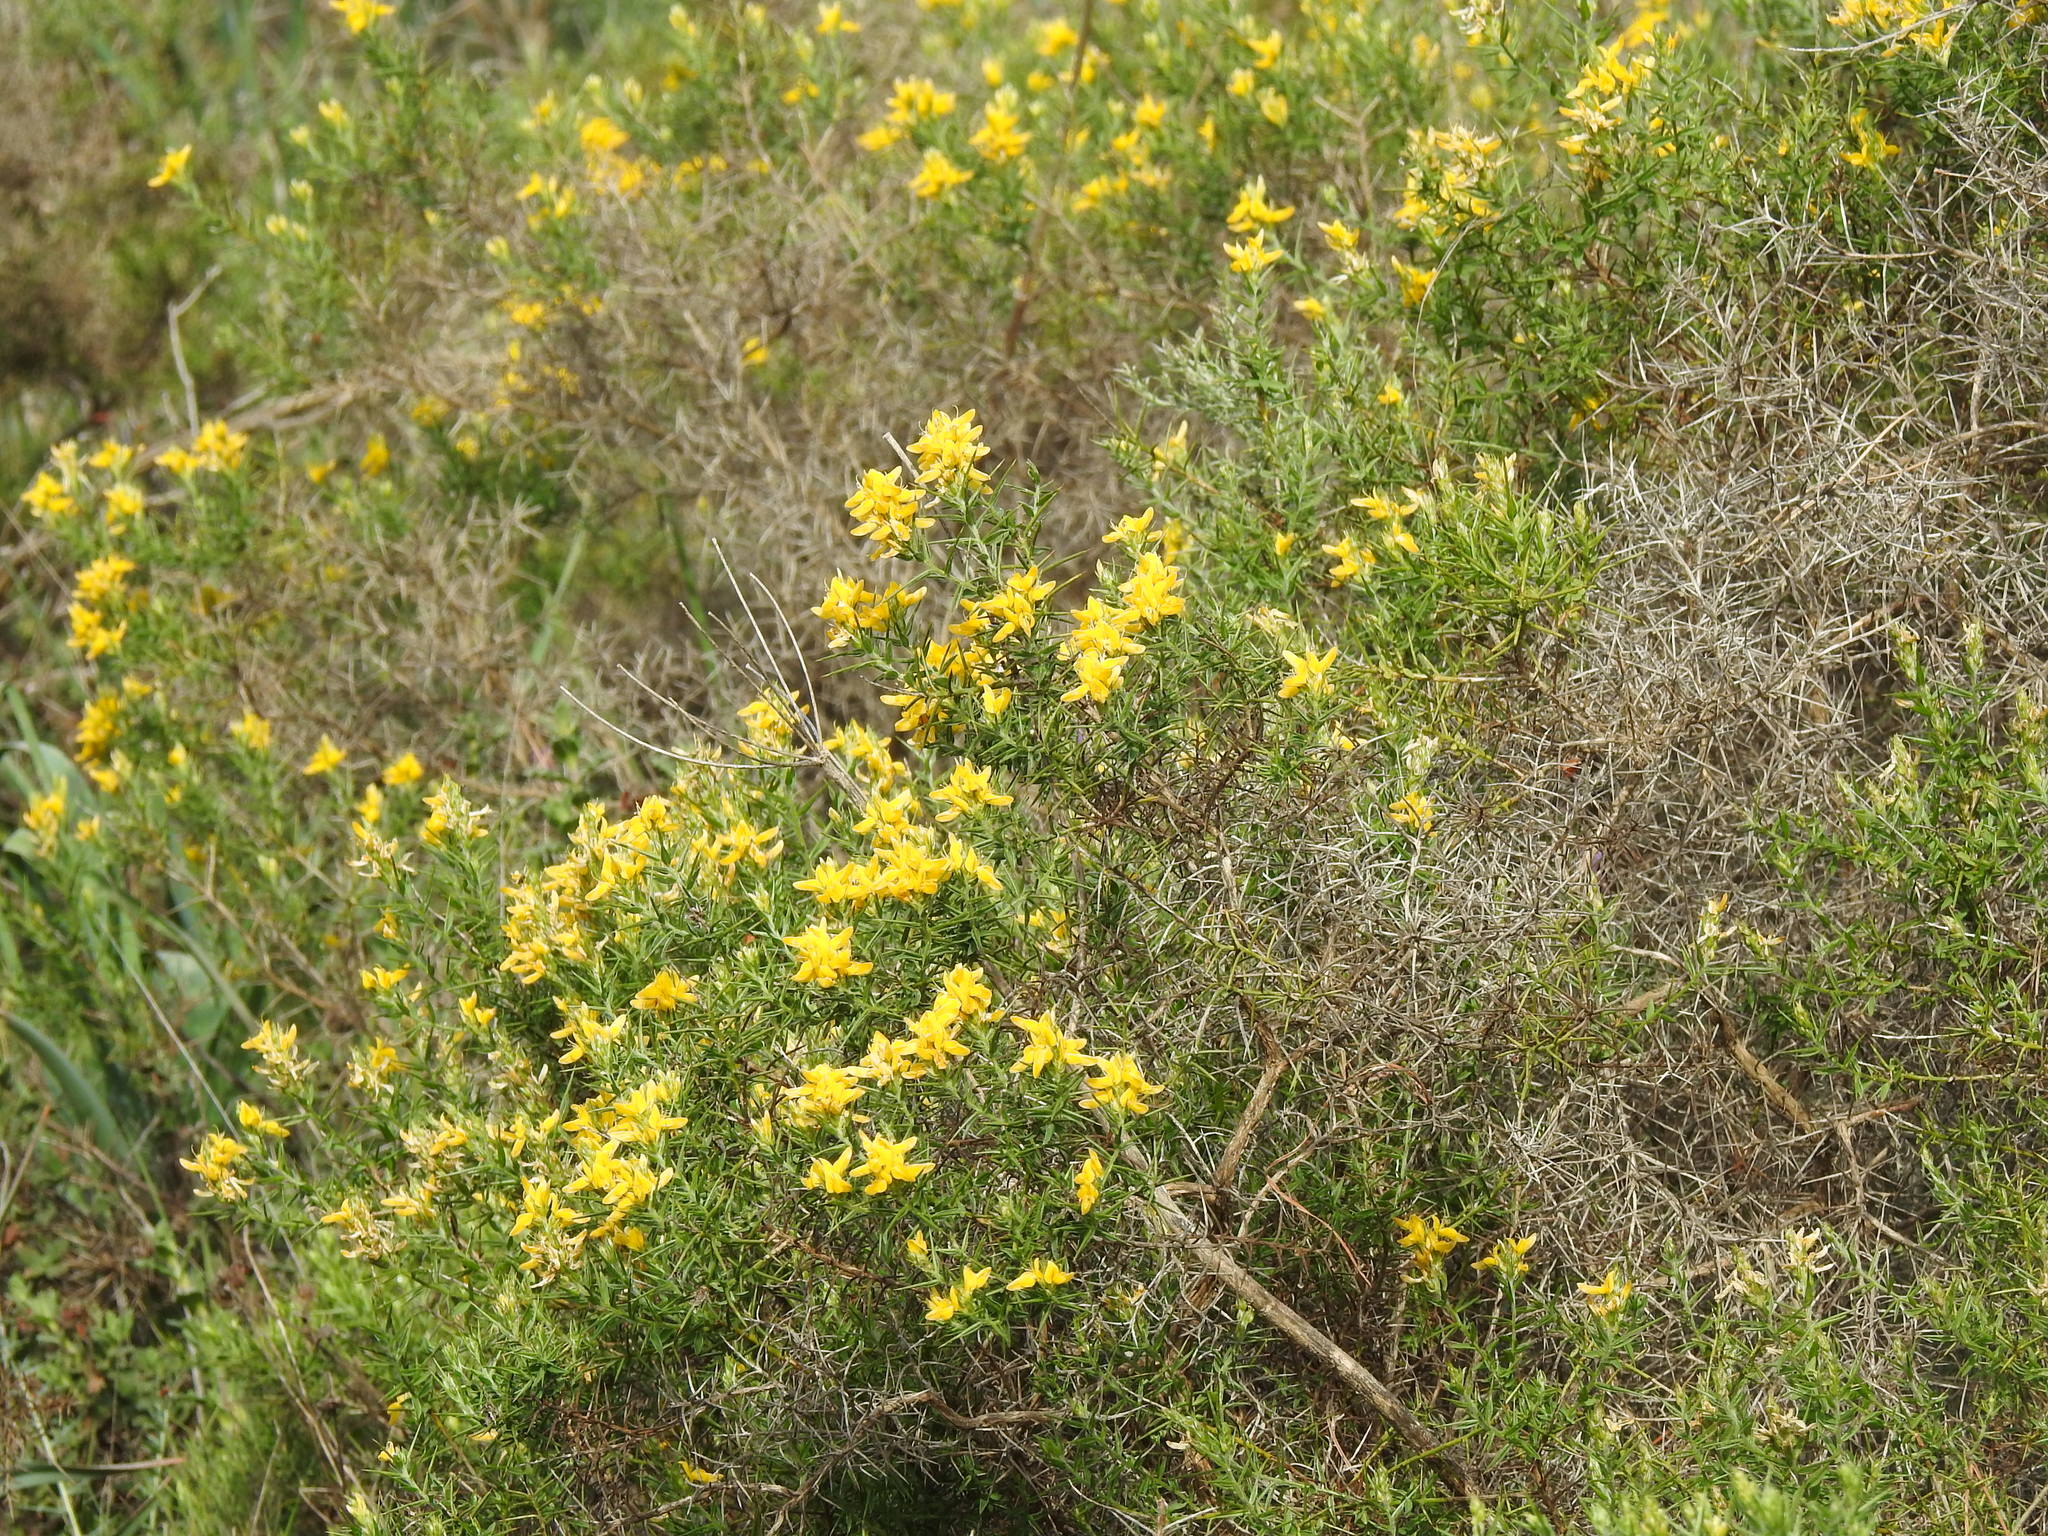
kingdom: Plantae
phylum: Tracheophyta
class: Magnoliopsida
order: Fabales
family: Fabaceae
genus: Genista
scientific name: Genista hirsuta
